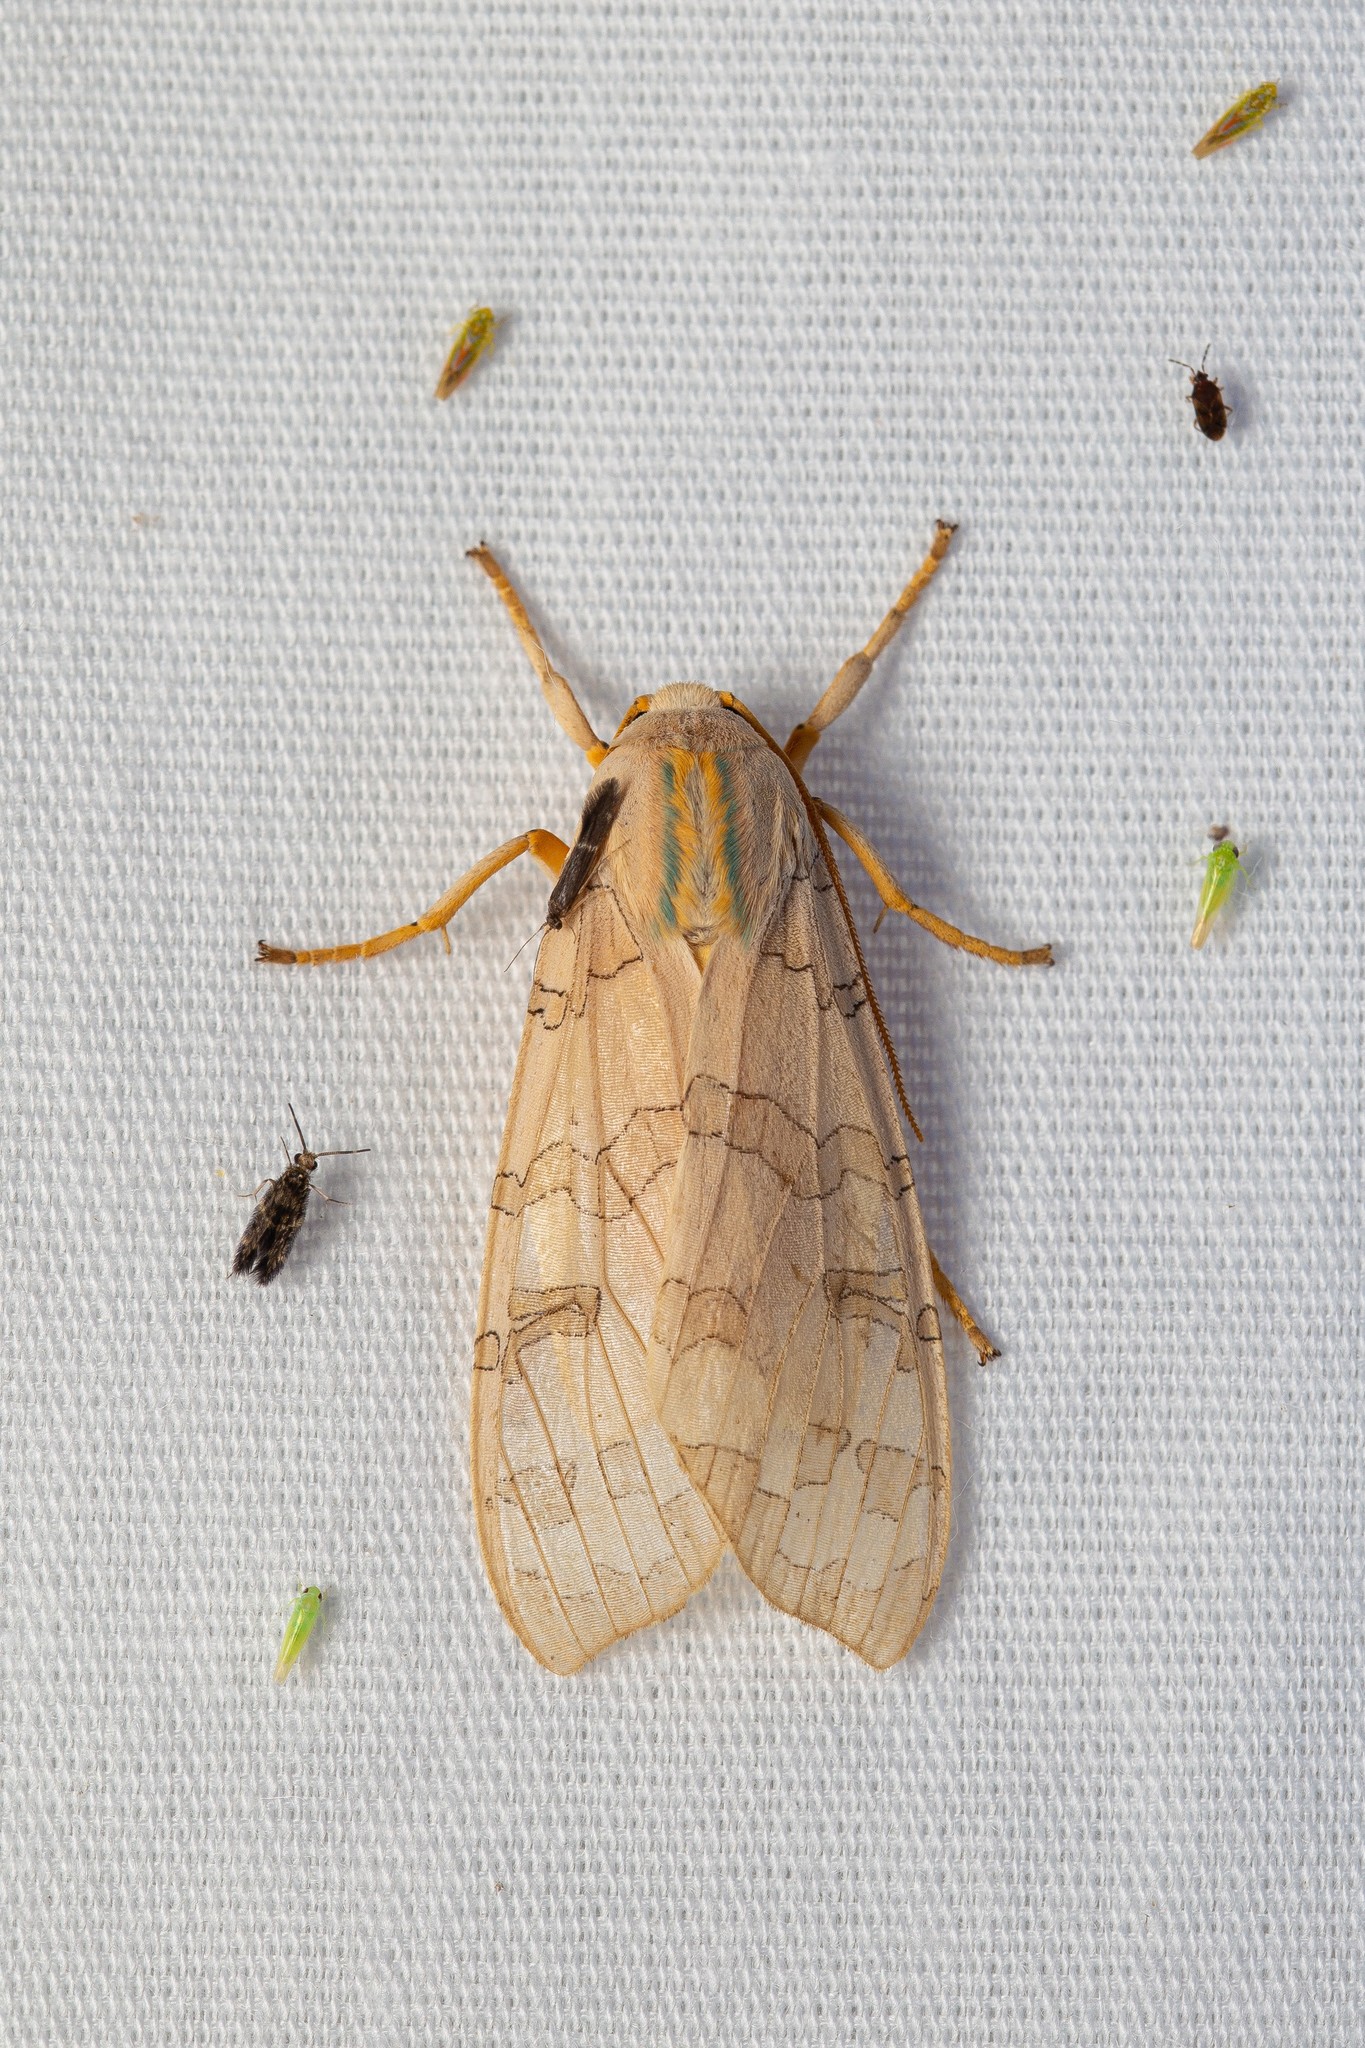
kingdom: Animalia
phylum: Arthropoda
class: Insecta
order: Lepidoptera
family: Erebidae
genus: Halysidota
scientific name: Halysidota
